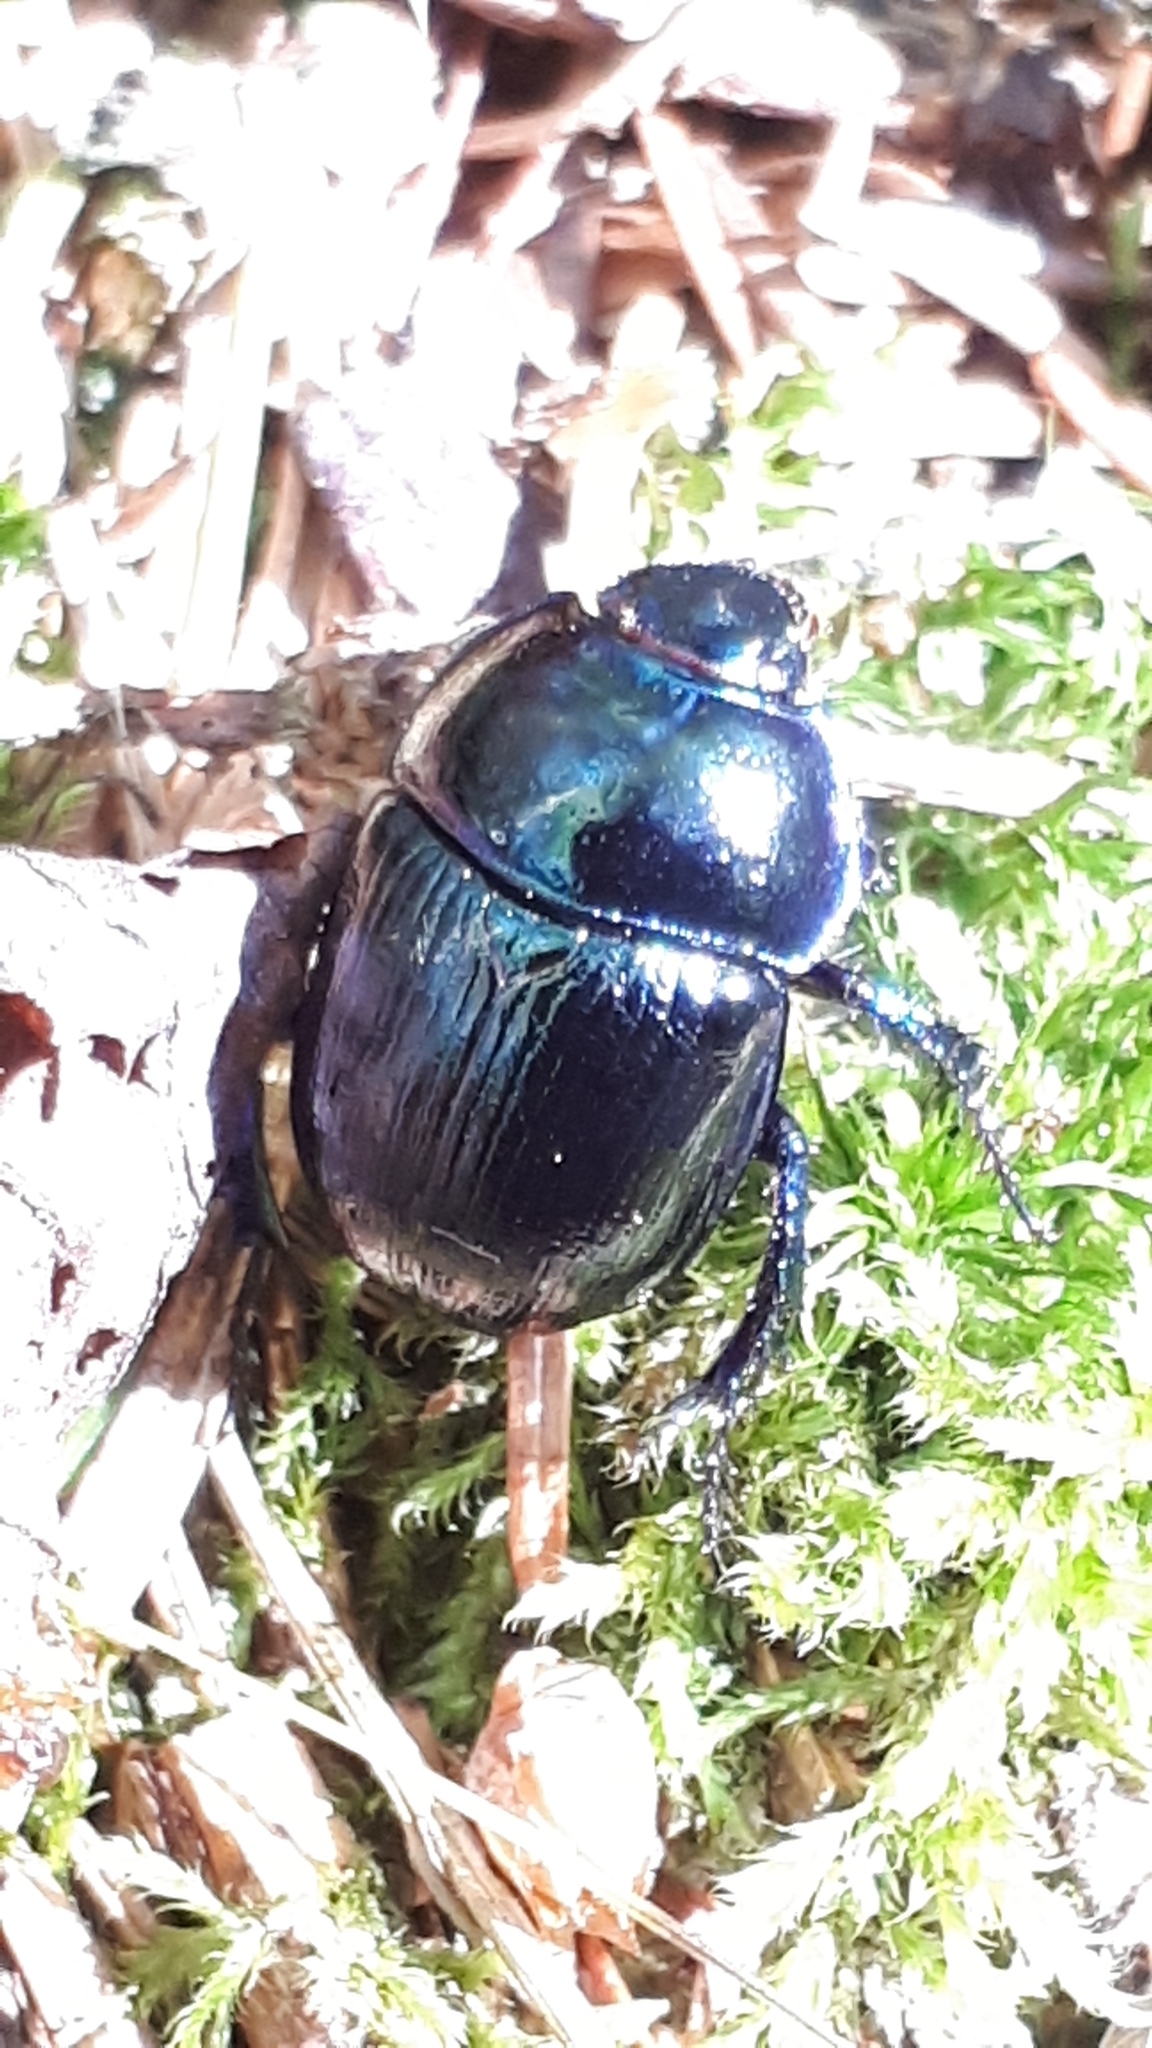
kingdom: Animalia
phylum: Arthropoda
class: Insecta
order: Coleoptera
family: Geotrupidae
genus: Anoplotrupes
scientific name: Anoplotrupes stercorosus
